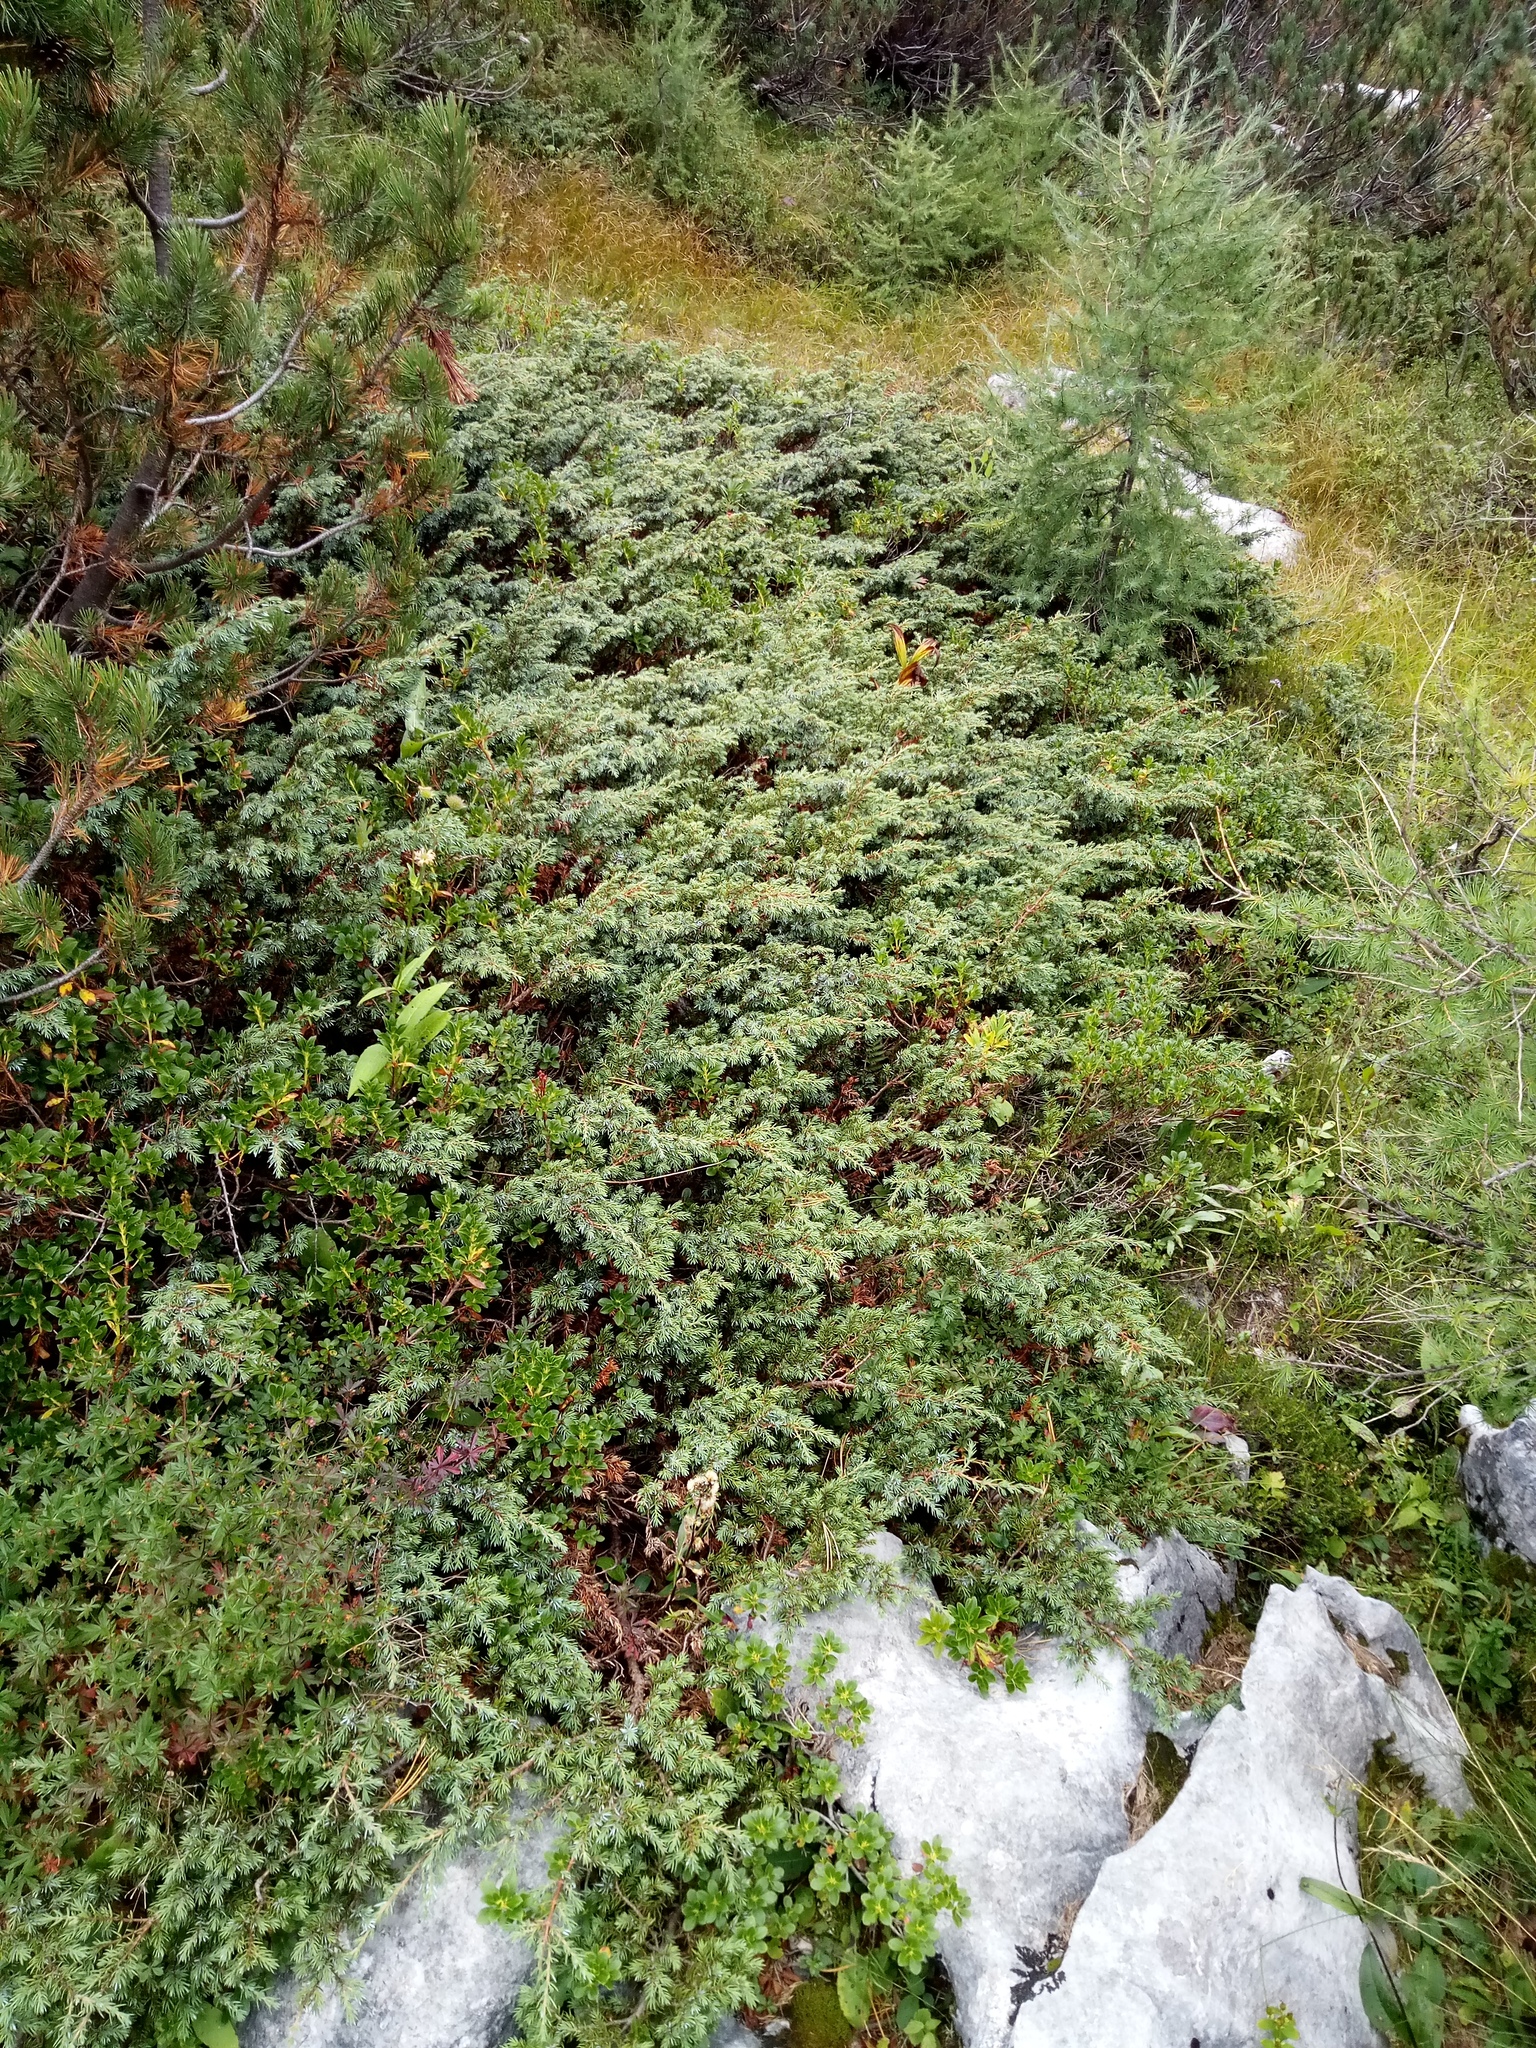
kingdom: Plantae
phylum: Tracheophyta
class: Pinopsida
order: Pinales
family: Cupressaceae
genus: Juniperus
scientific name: Juniperus communis
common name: Common juniper
